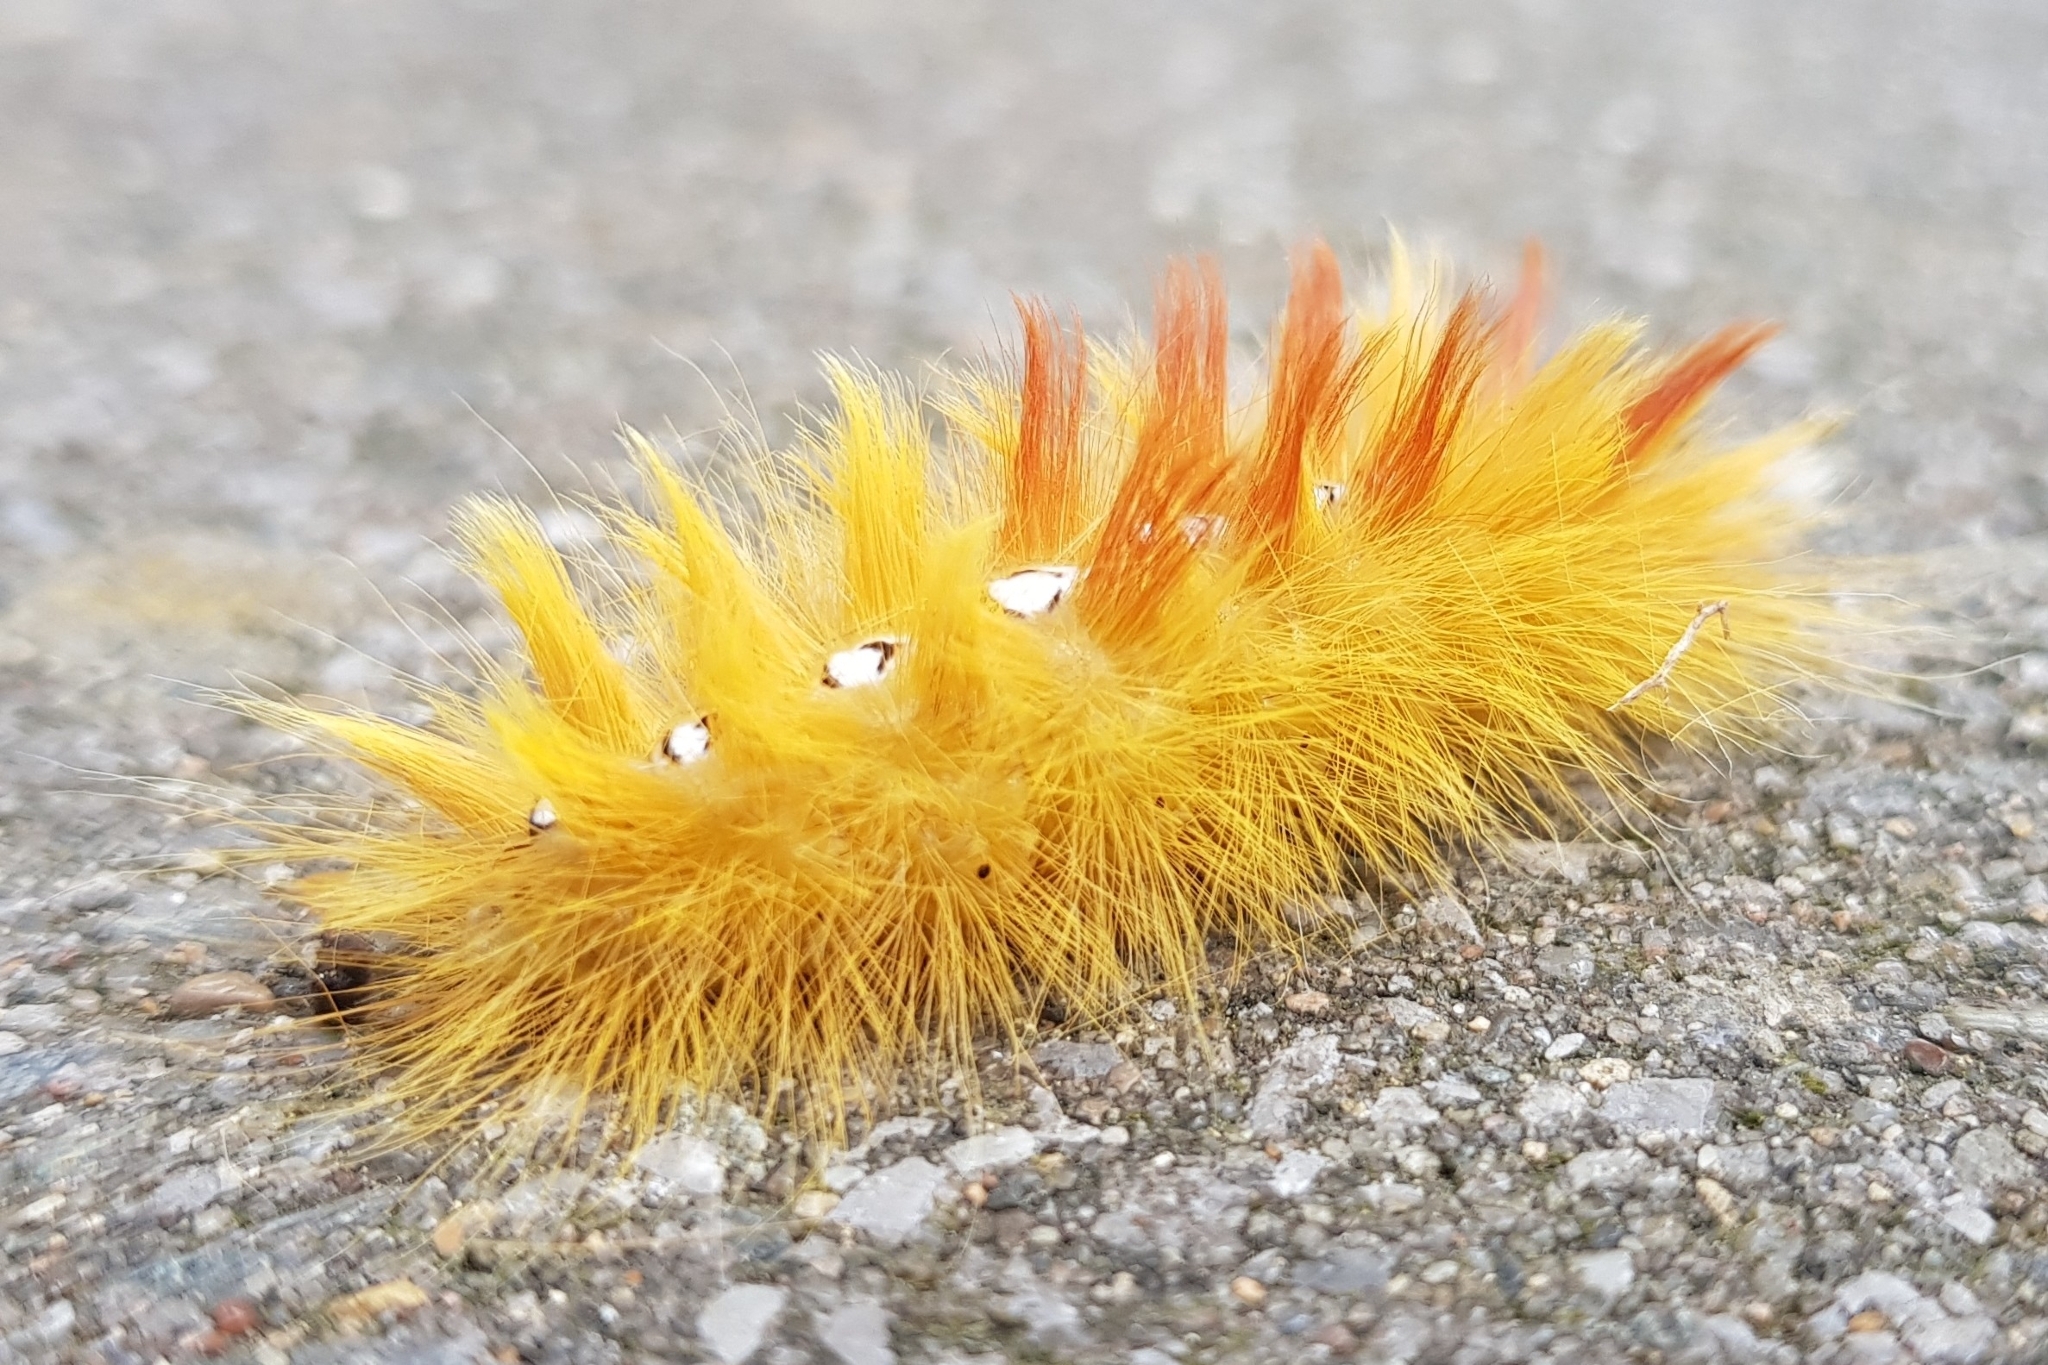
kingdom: Animalia
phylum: Arthropoda
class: Insecta
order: Lepidoptera
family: Noctuidae
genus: Acronicta
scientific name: Acronicta aceris
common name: Sycamore
